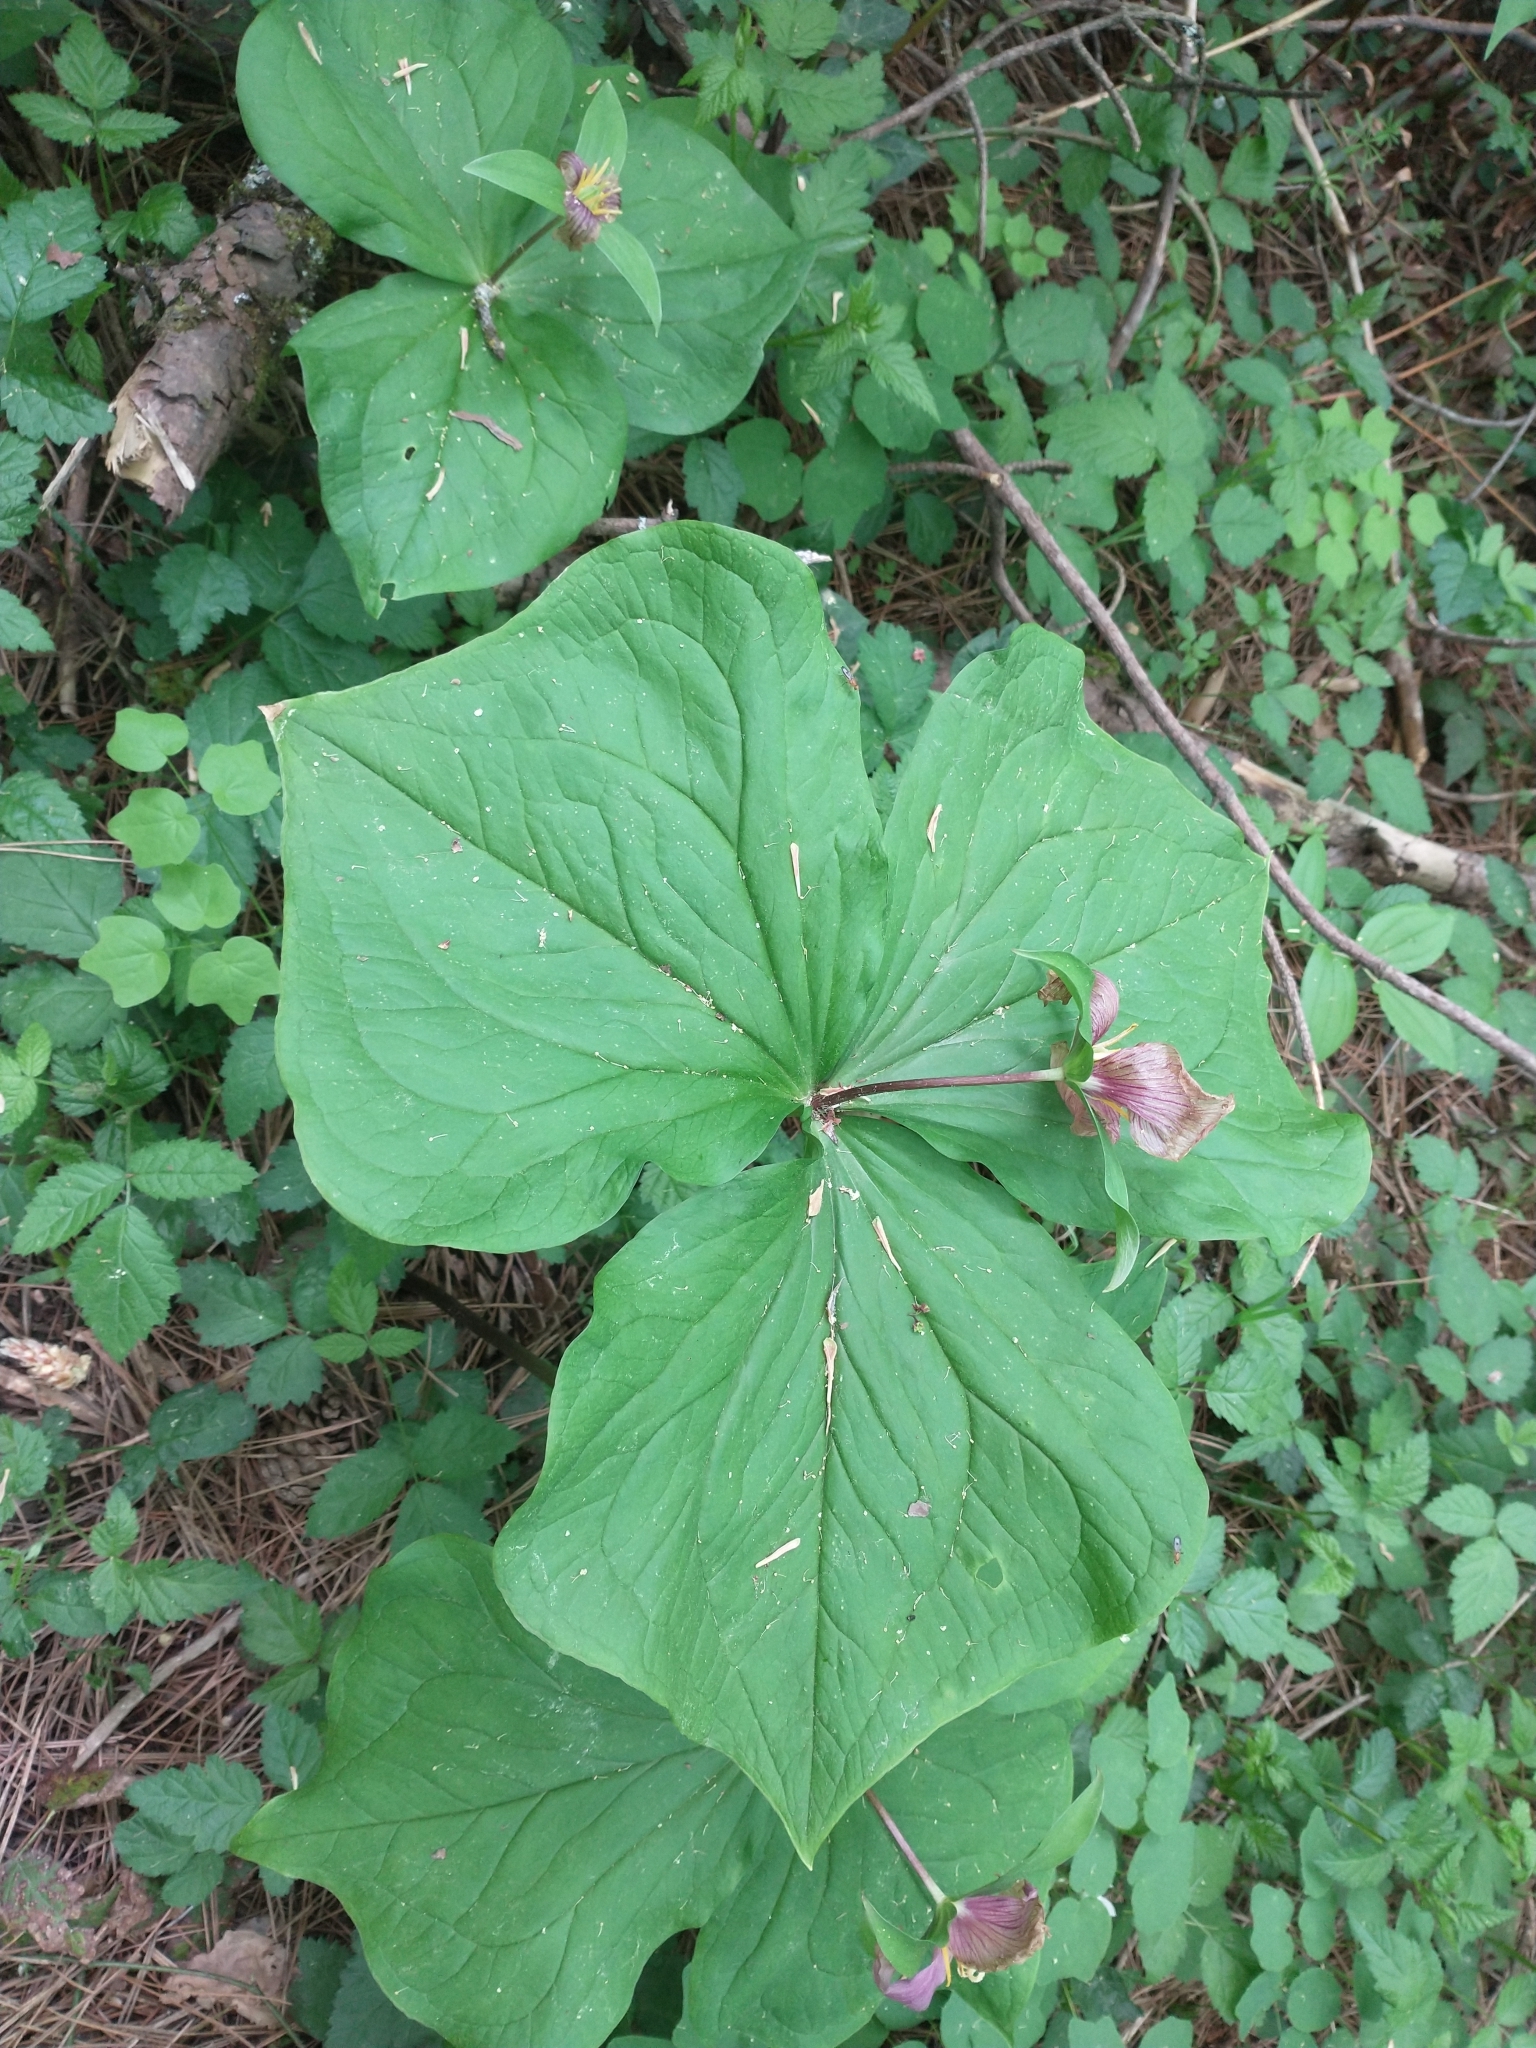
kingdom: Plantae
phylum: Tracheophyta
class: Liliopsida
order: Liliales
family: Melanthiaceae
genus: Trillium
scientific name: Trillium ovatum
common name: Pacific trillium
